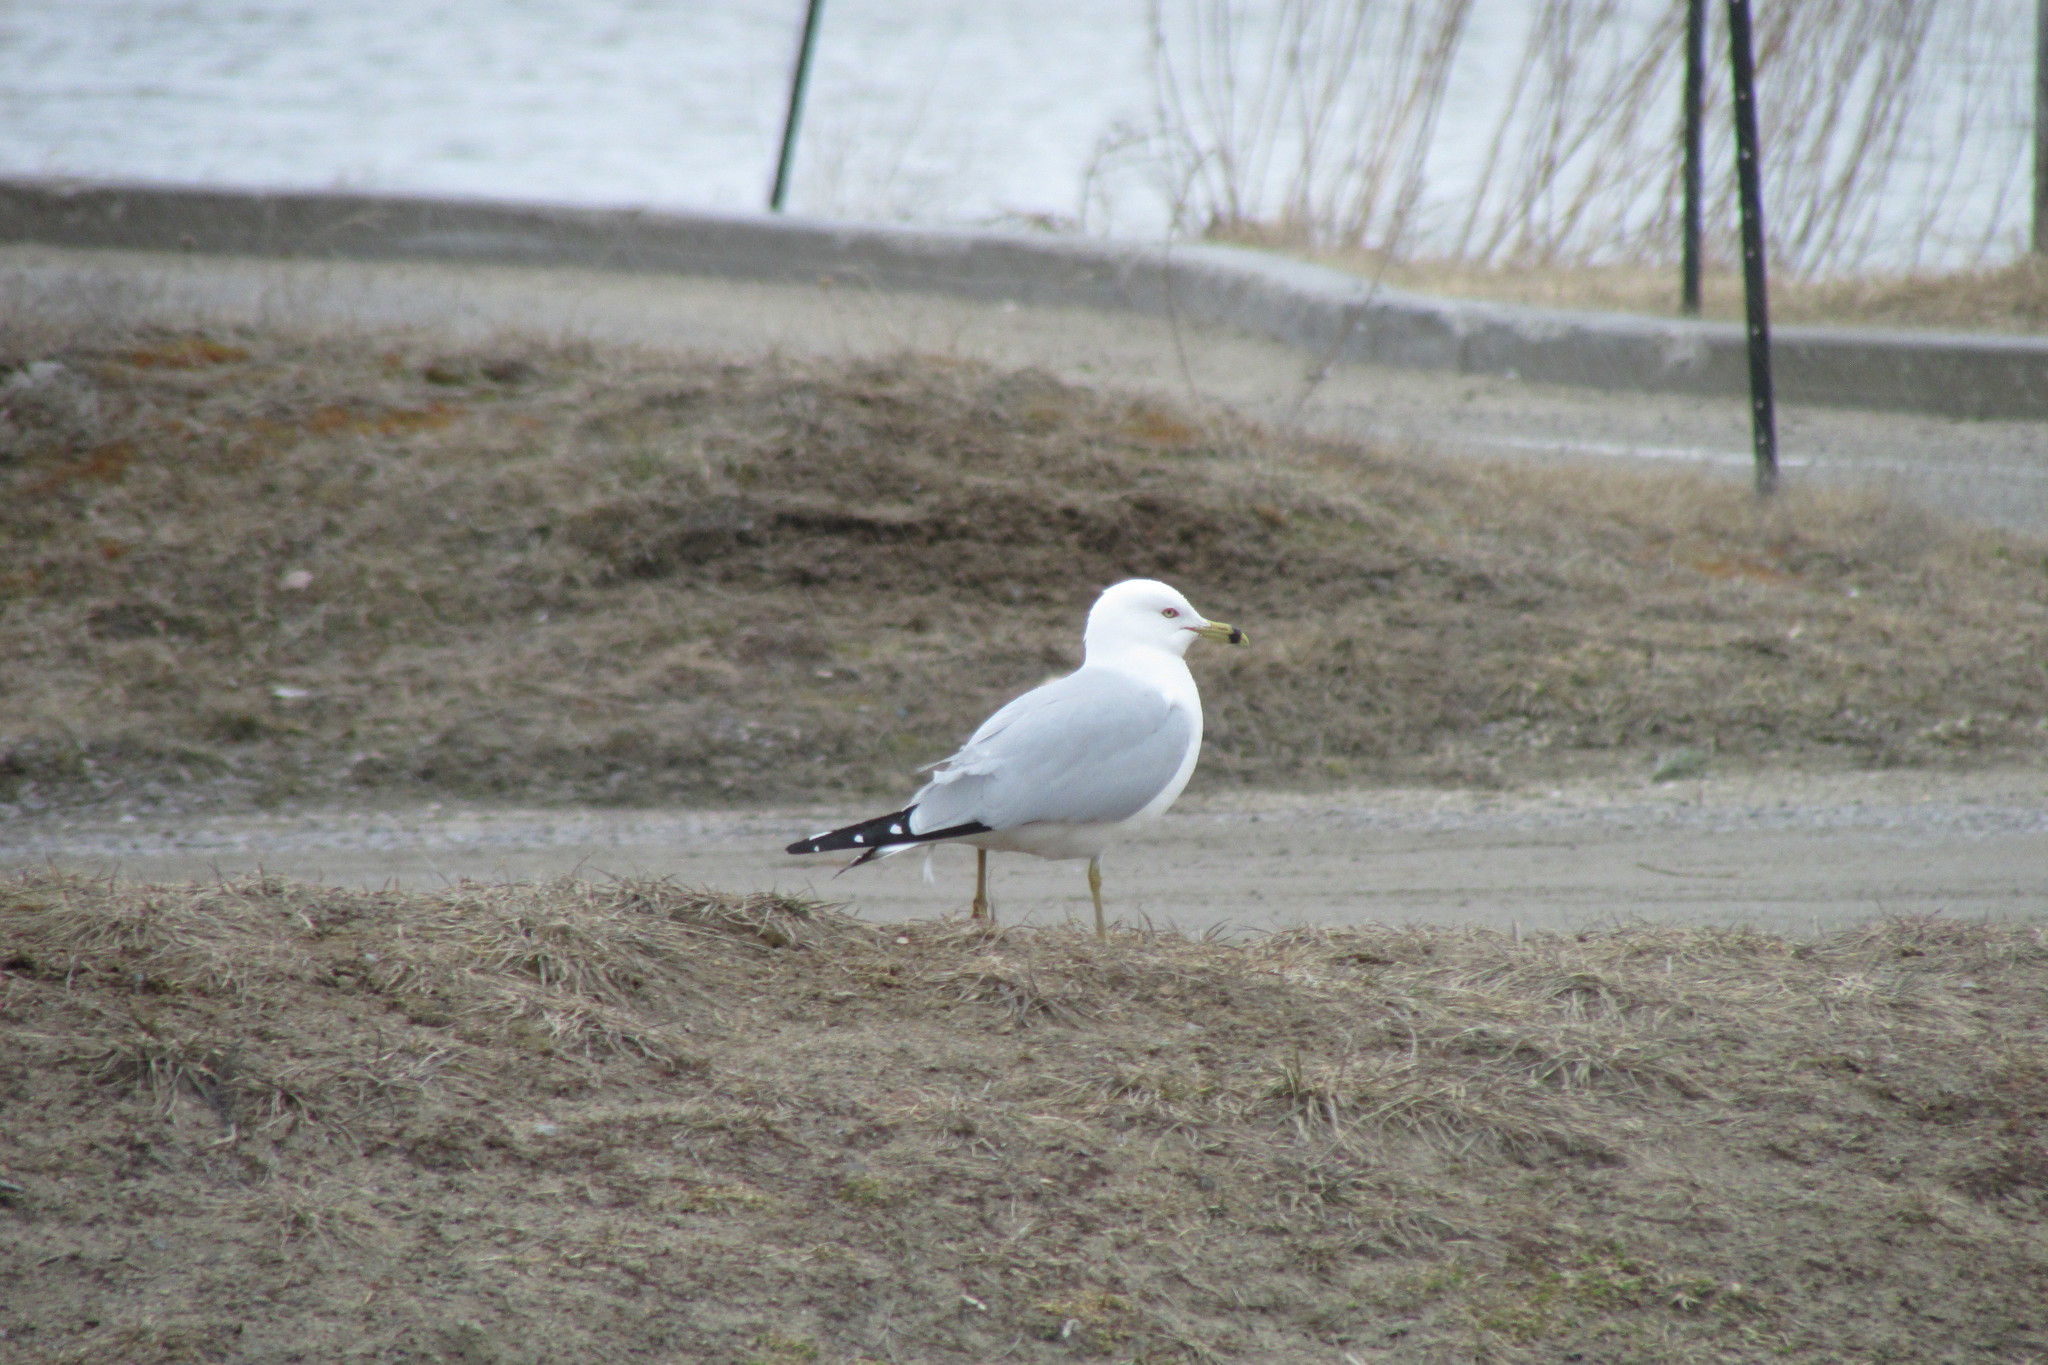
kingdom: Animalia
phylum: Chordata
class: Aves
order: Charadriiformes
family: Laridae
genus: Larus
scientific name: Larus delawarensis
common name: Ring-billed gull
